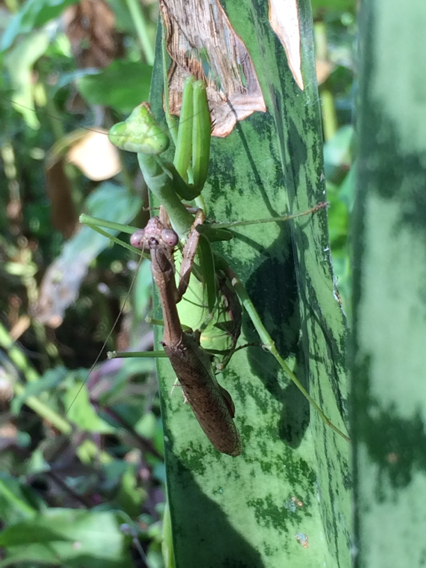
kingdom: Animalia
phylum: Arthropoda
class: Insecta
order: Mantodea
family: Mantidae
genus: Stagmomantis
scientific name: Stagmomantis carolina
